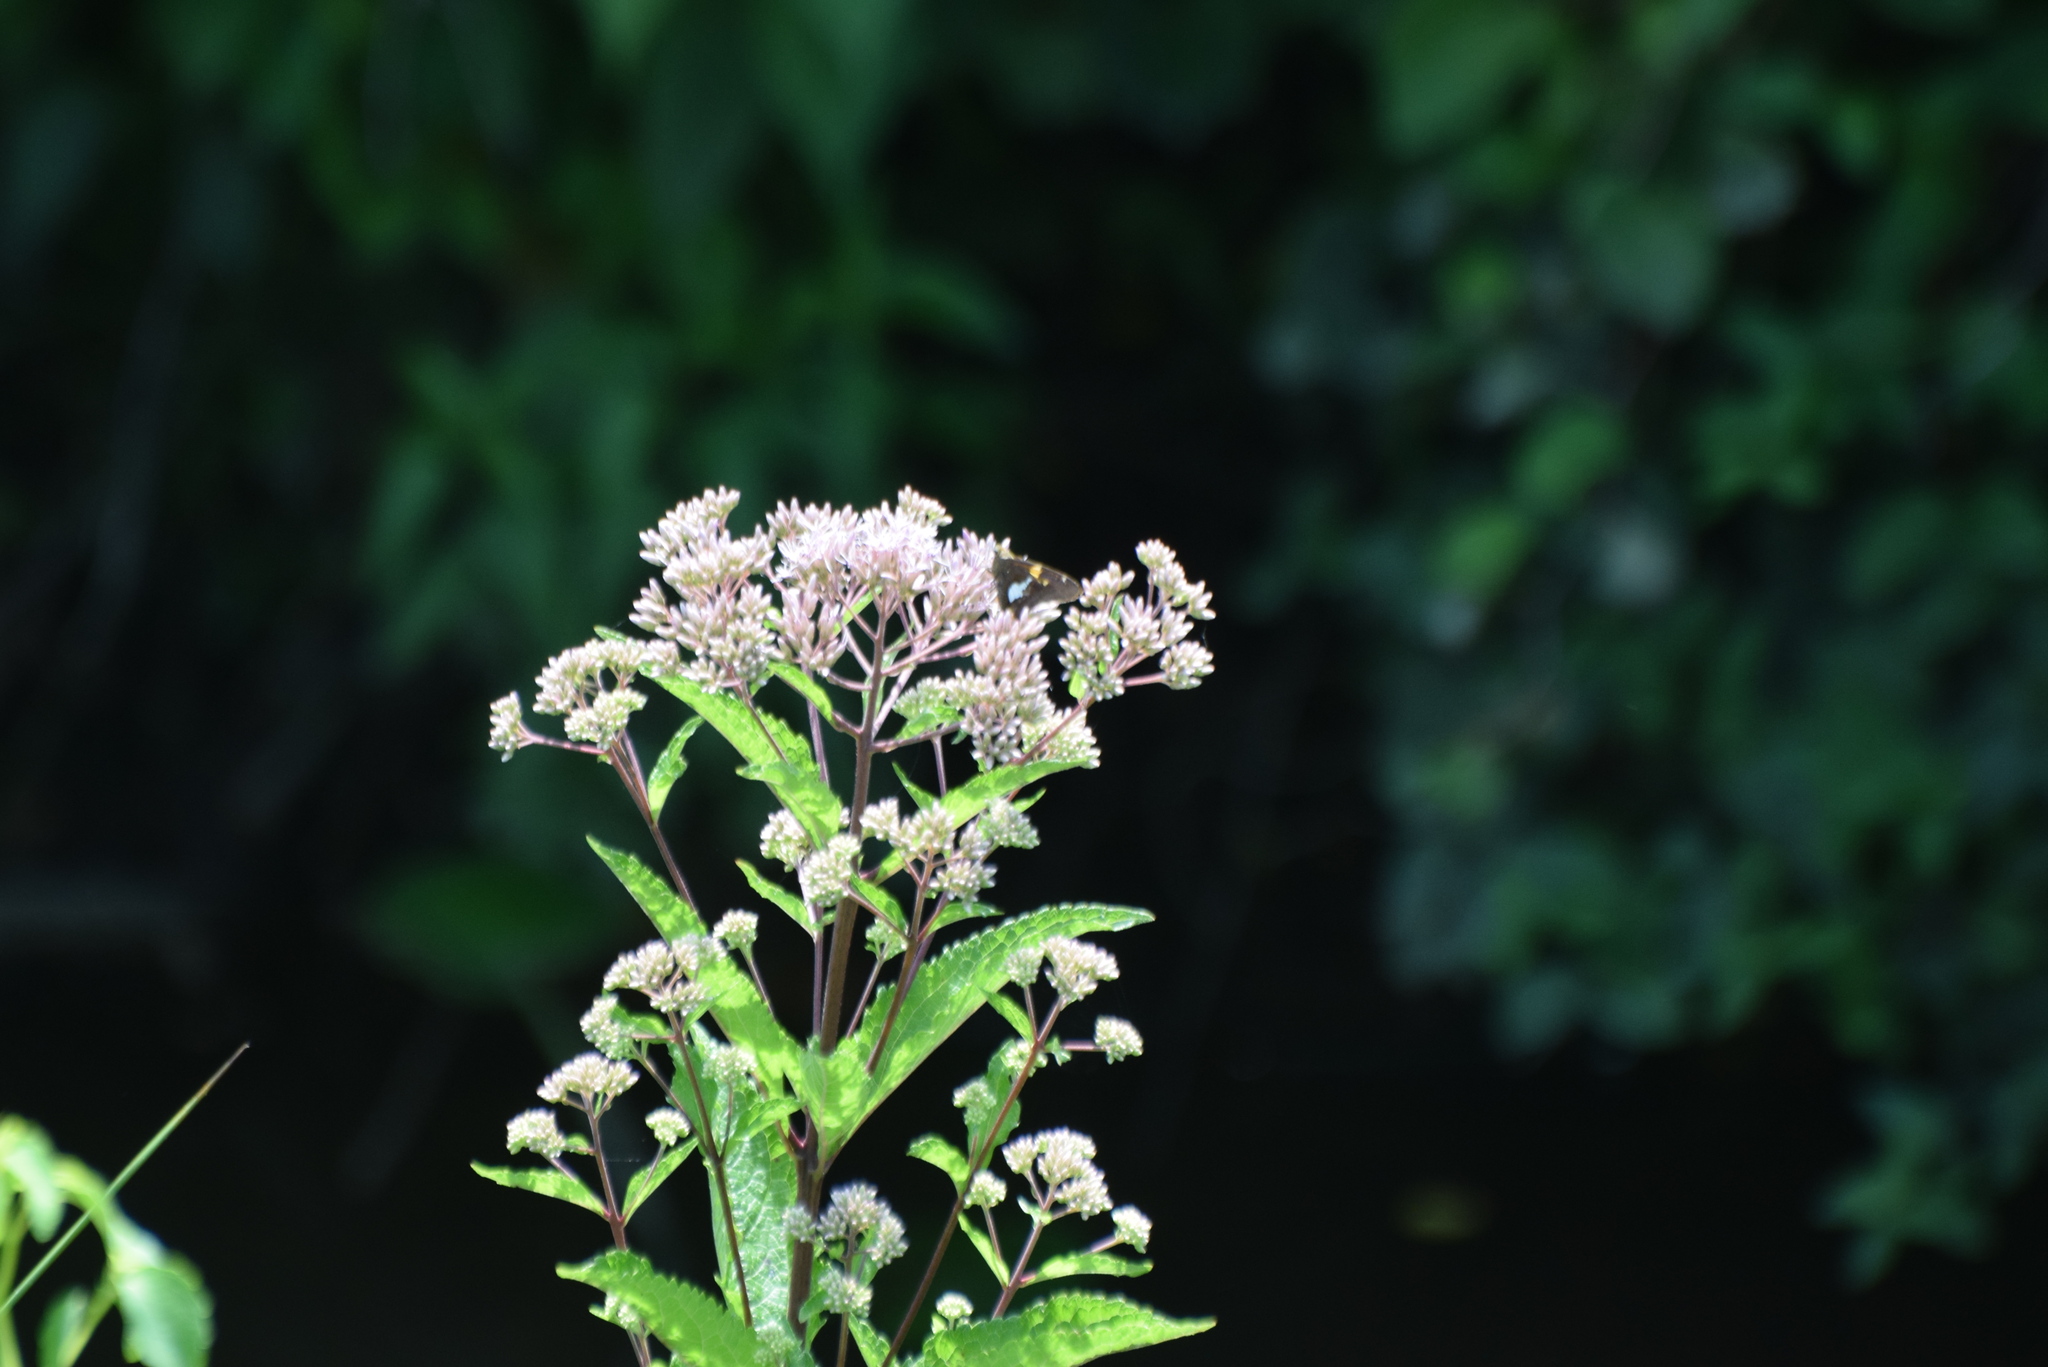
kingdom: Animalia
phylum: Arthropoda
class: Insecta
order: Lepidoptera
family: Hesperiidae
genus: Epargyreus
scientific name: Epargyreus clarus
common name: Silver-spotted skipper
